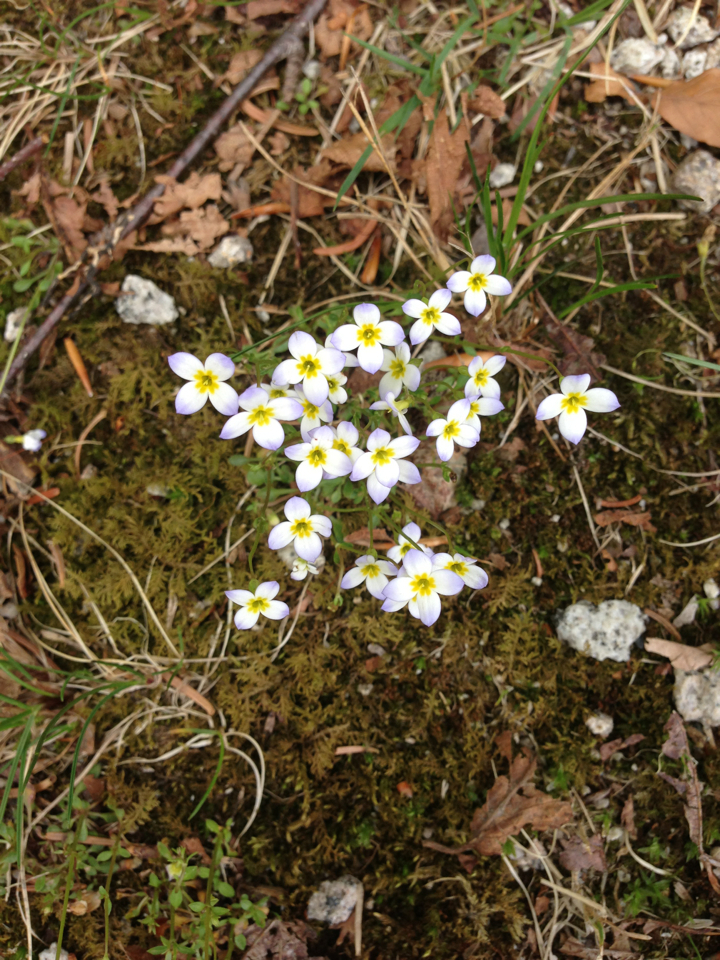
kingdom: Plantae
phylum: Tracheophyta
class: Magnoliopsida
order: Gentianales
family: Rubiaceae
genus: Houstonia
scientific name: Houstonia caerulea
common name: Bluets
